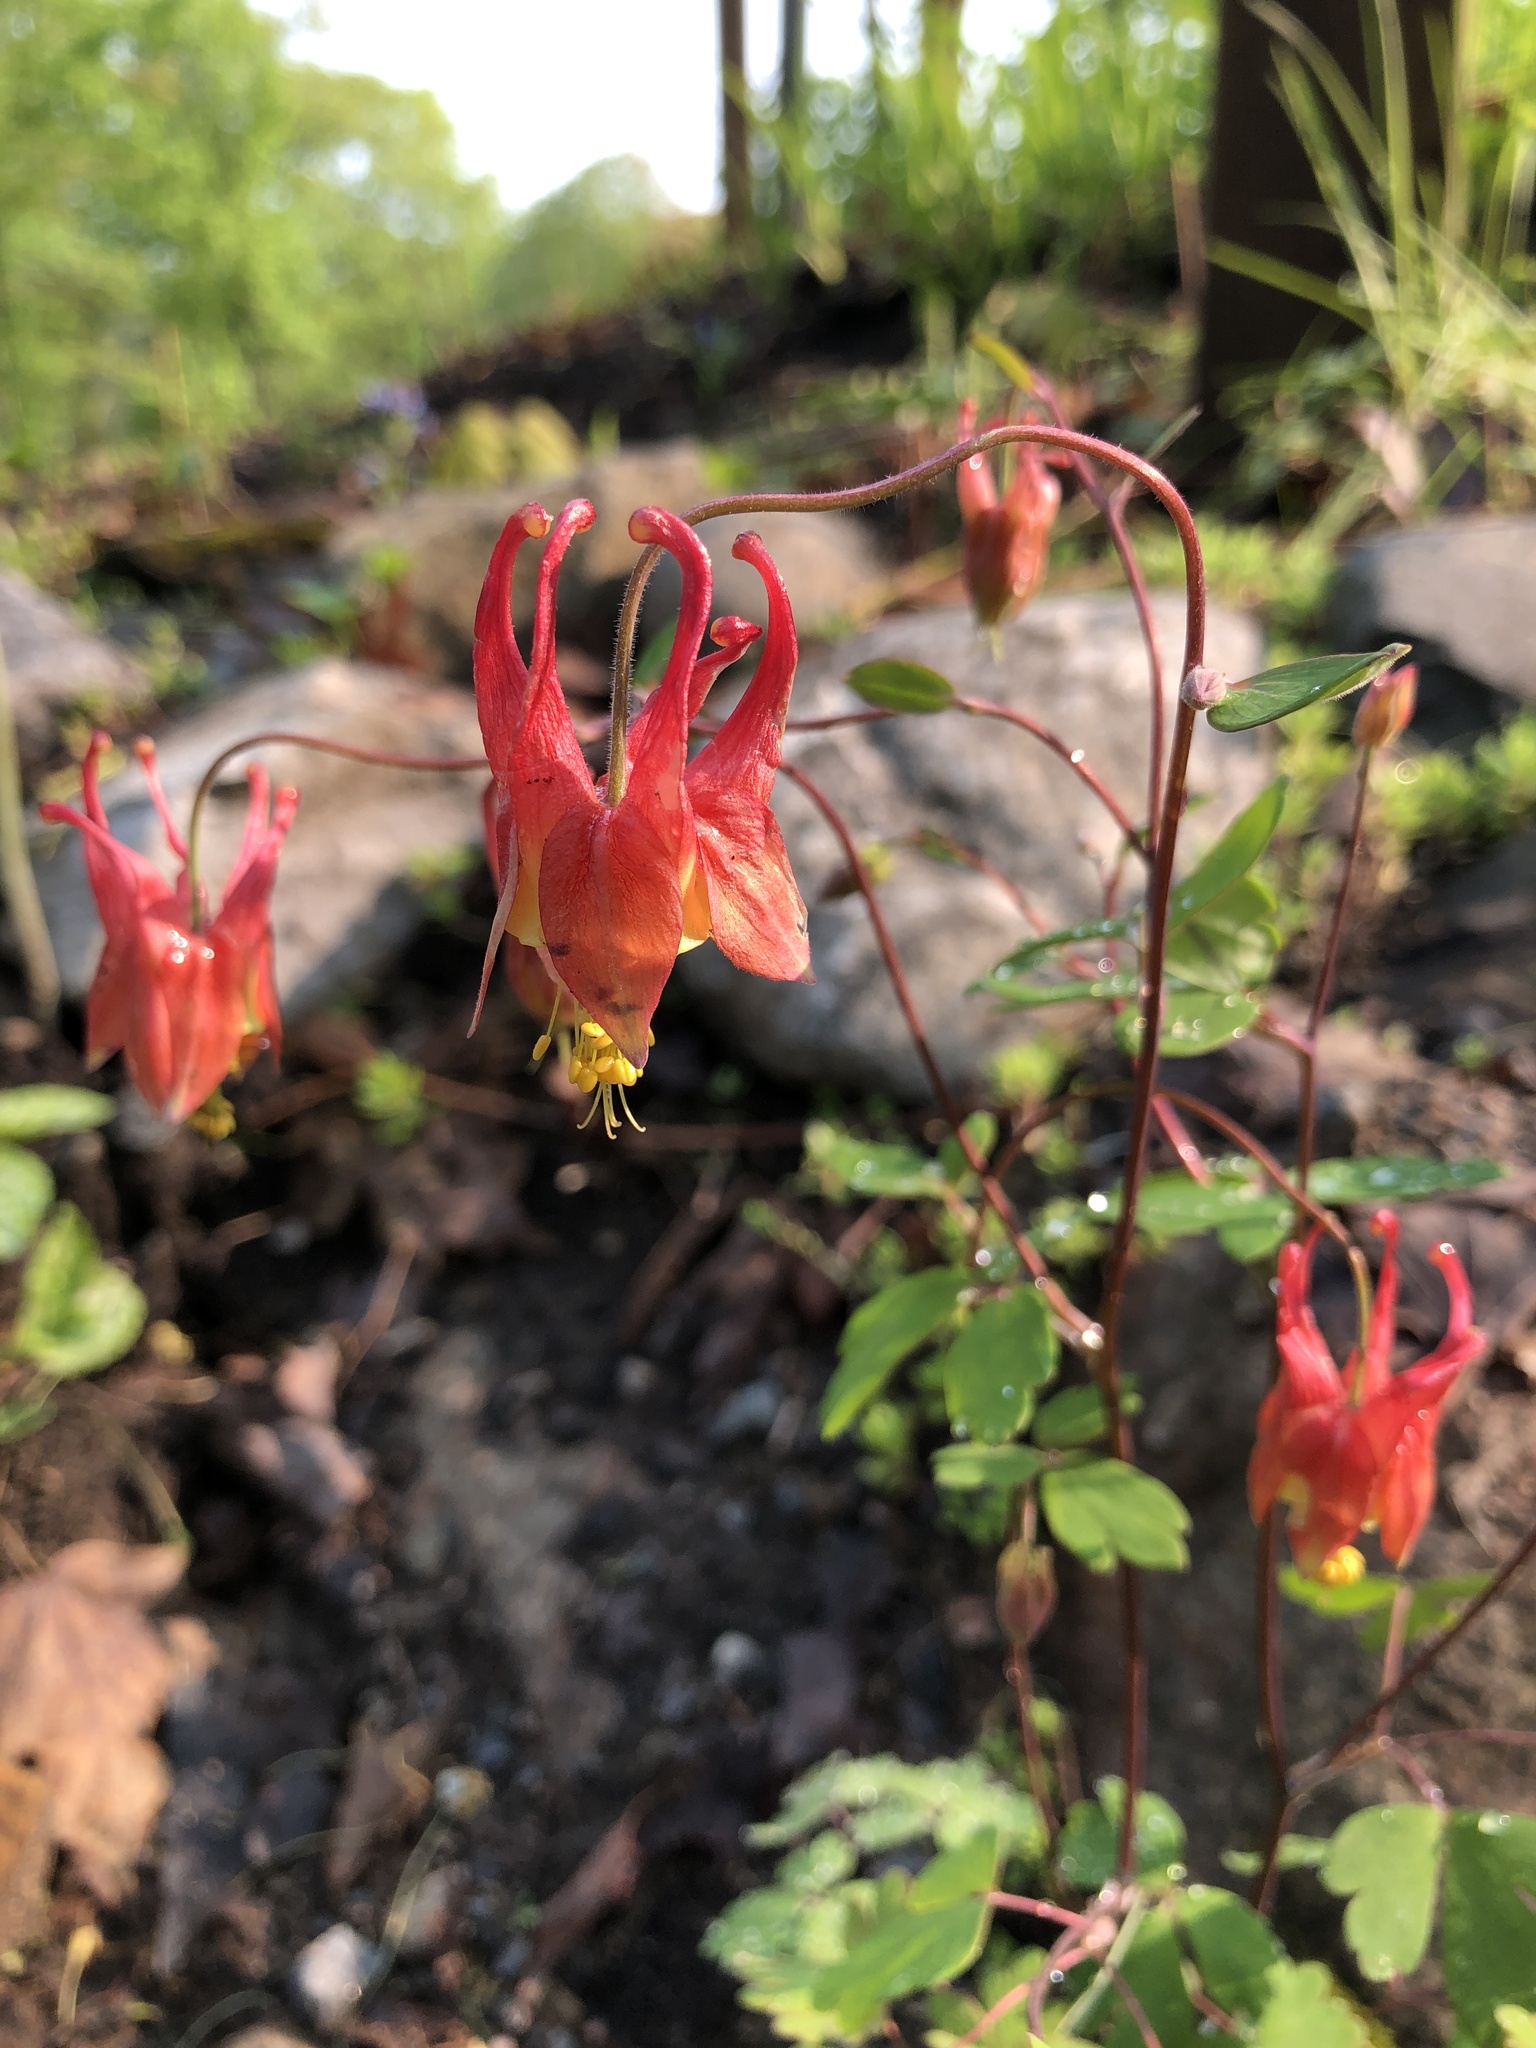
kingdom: Plantae
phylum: Tracheophyta
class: Magnoliopsida
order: Ranunculales
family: Ranunculaceae
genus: Aquilegia
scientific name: Aquilegia canadensis
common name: American columbine
